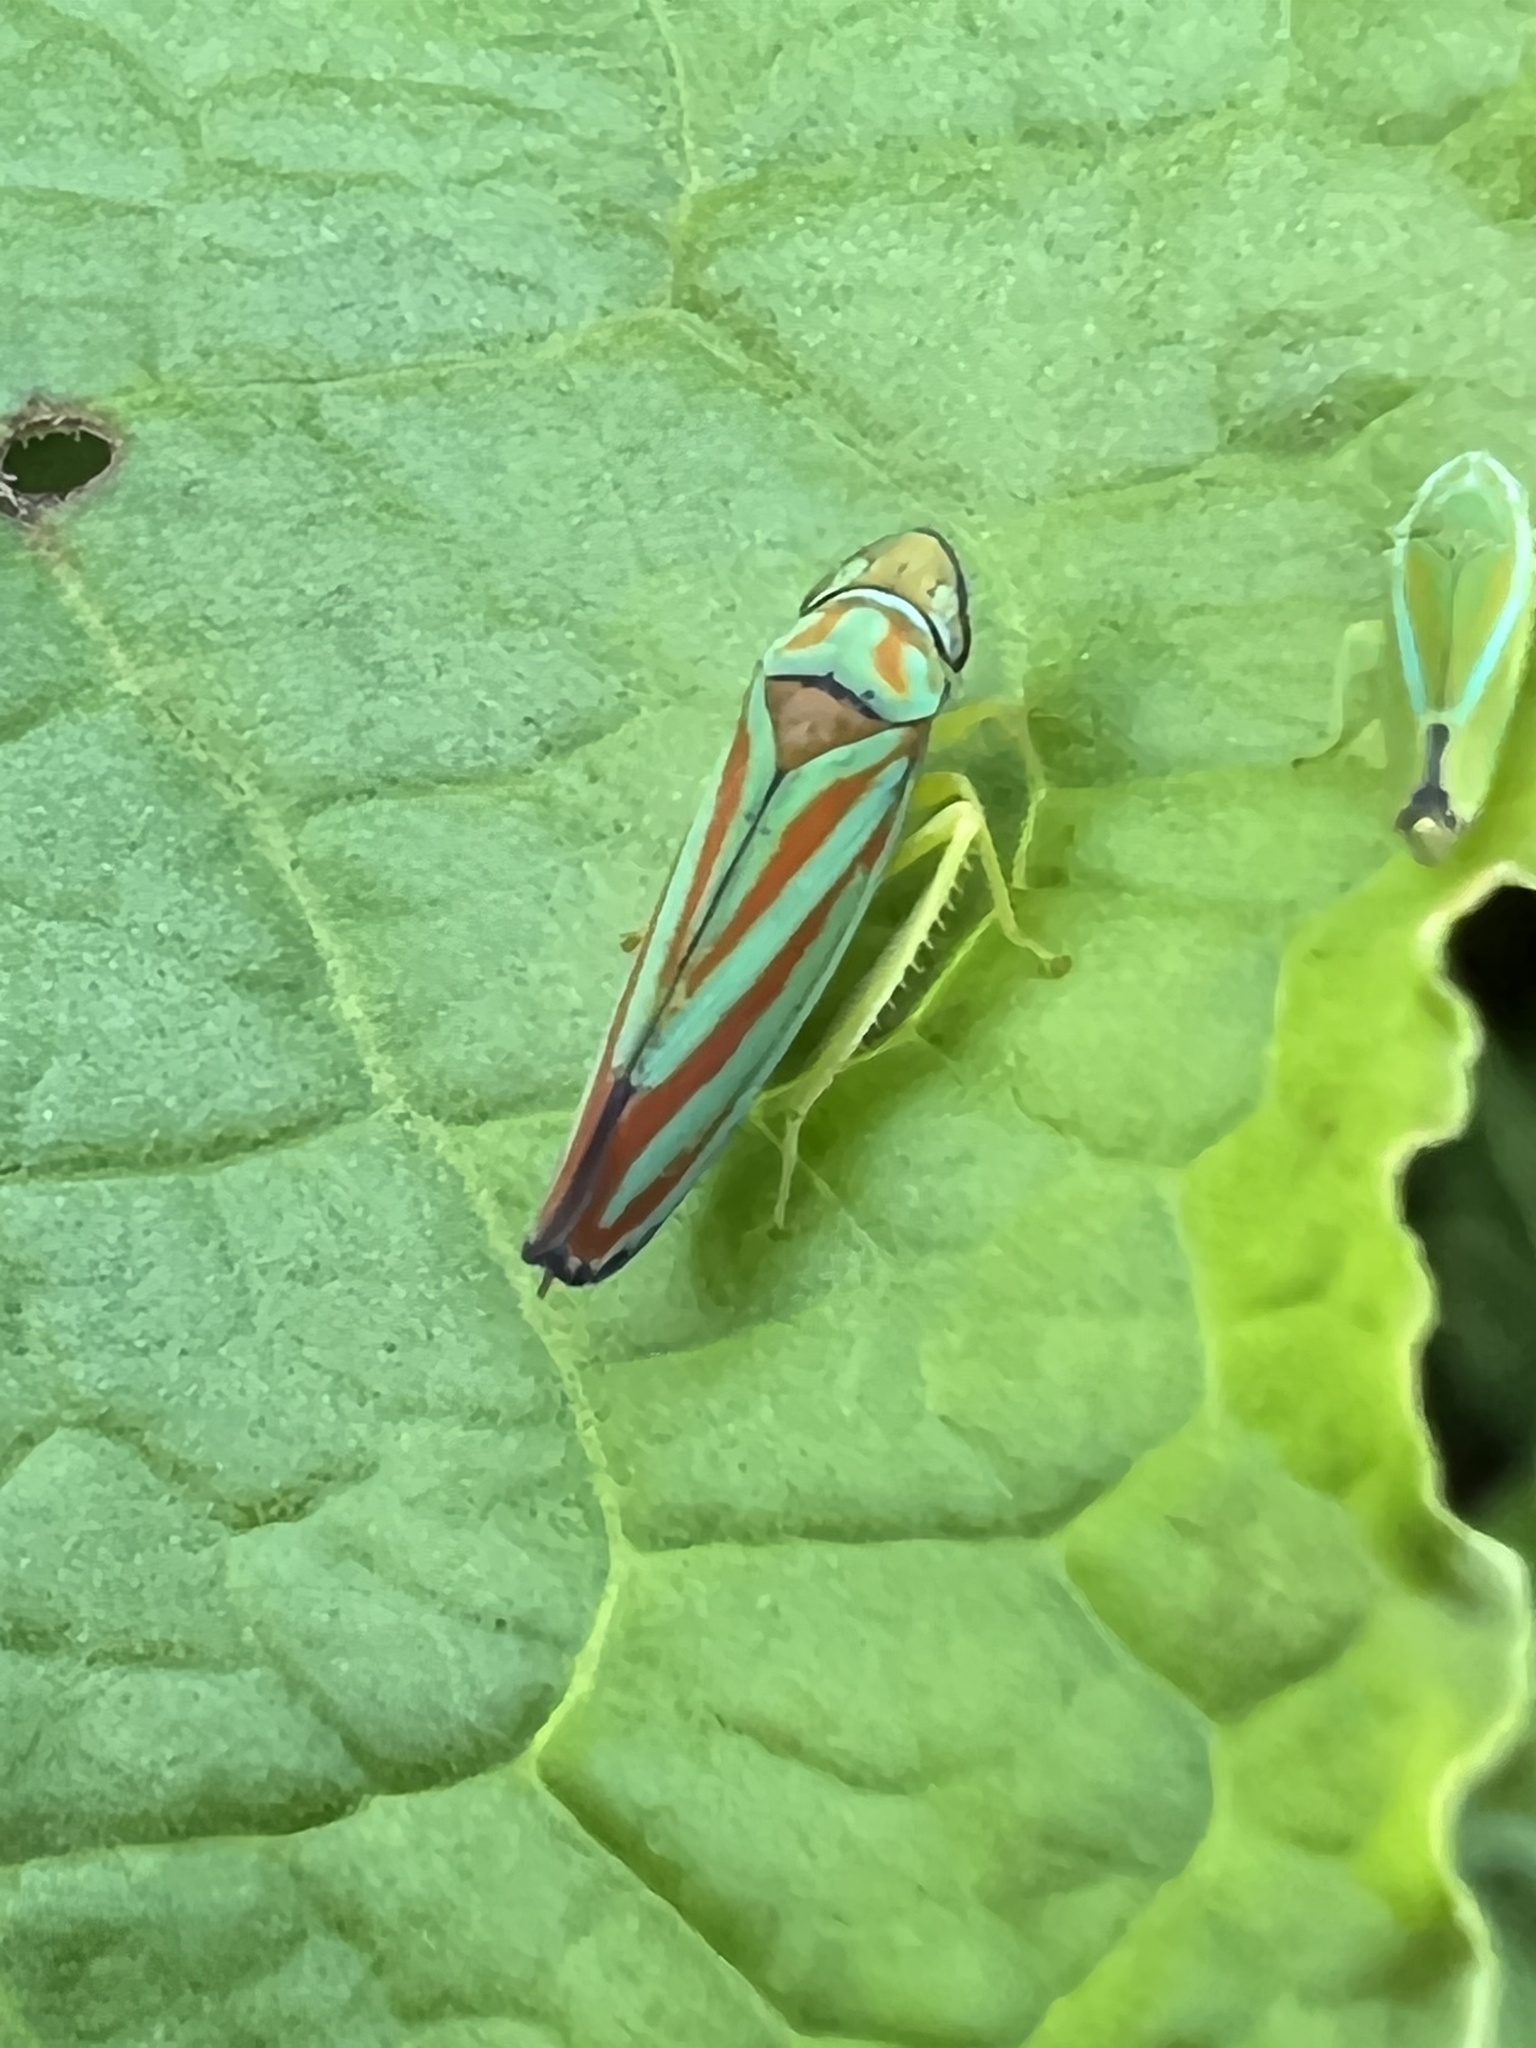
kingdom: Animalia
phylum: Arthropoda
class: Insecta
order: Hemiptera
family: Cicadellidae
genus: Graphocephala
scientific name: Graphocephala coccinea
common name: Candy-striped leafhopper
